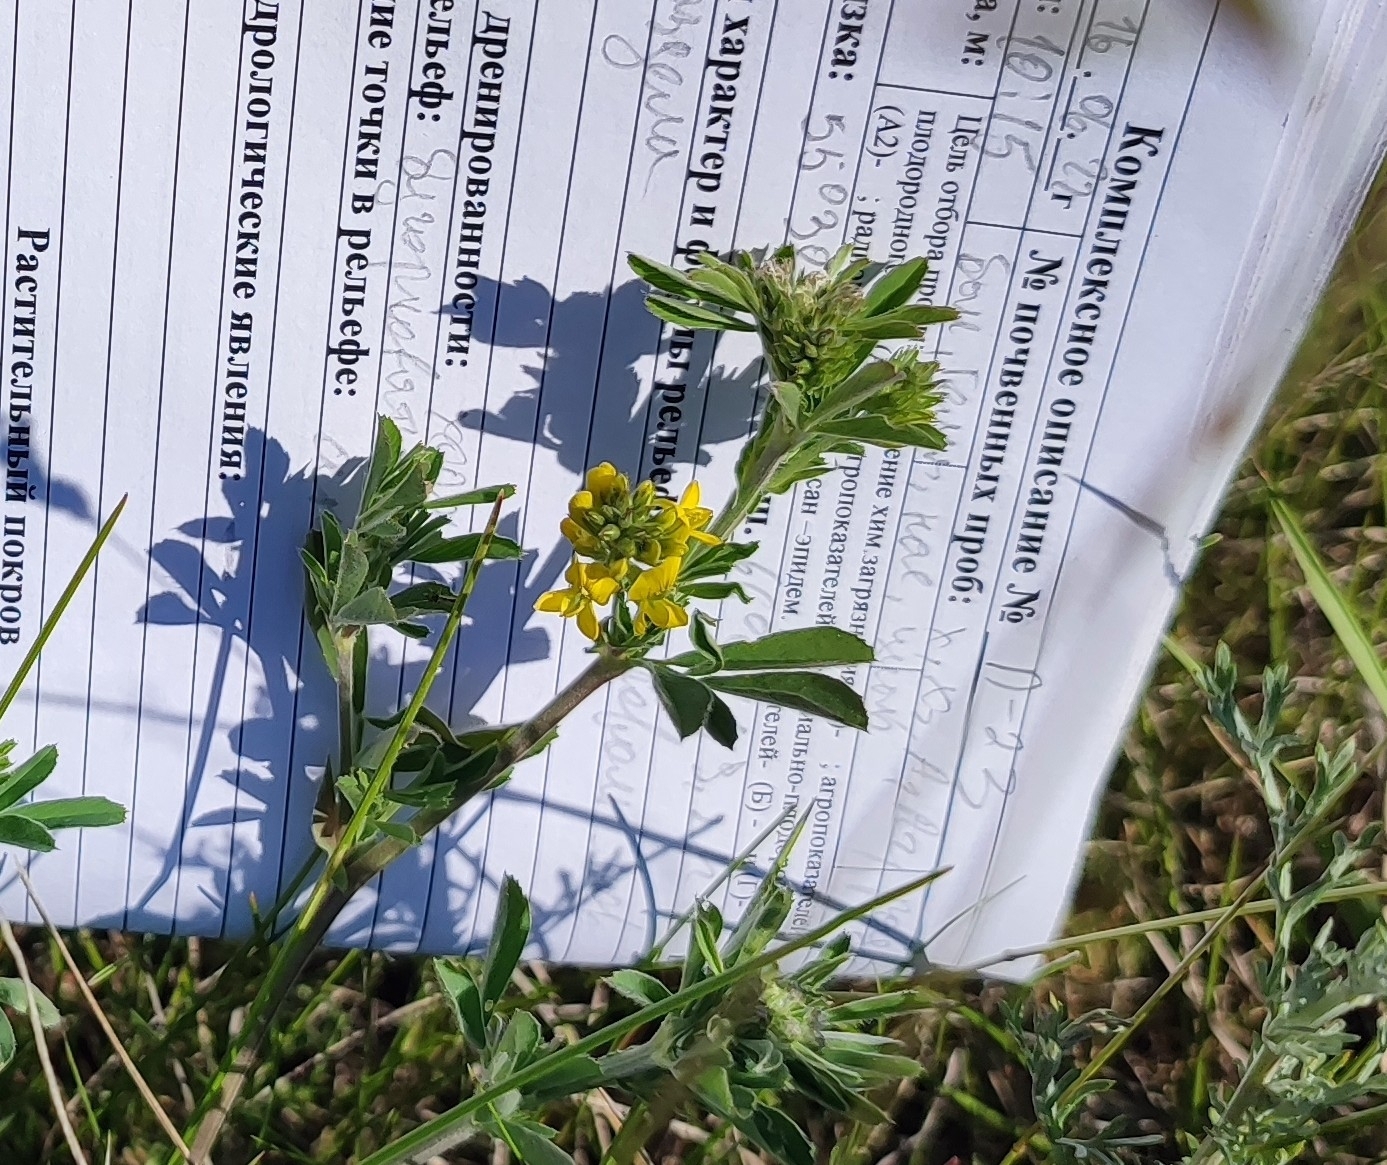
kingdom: Plantae
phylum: Tracheophyta
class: Magnoliopsida
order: Fabales
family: Fabaceae
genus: Medicago
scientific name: Medicago falcata
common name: Sickle medick
